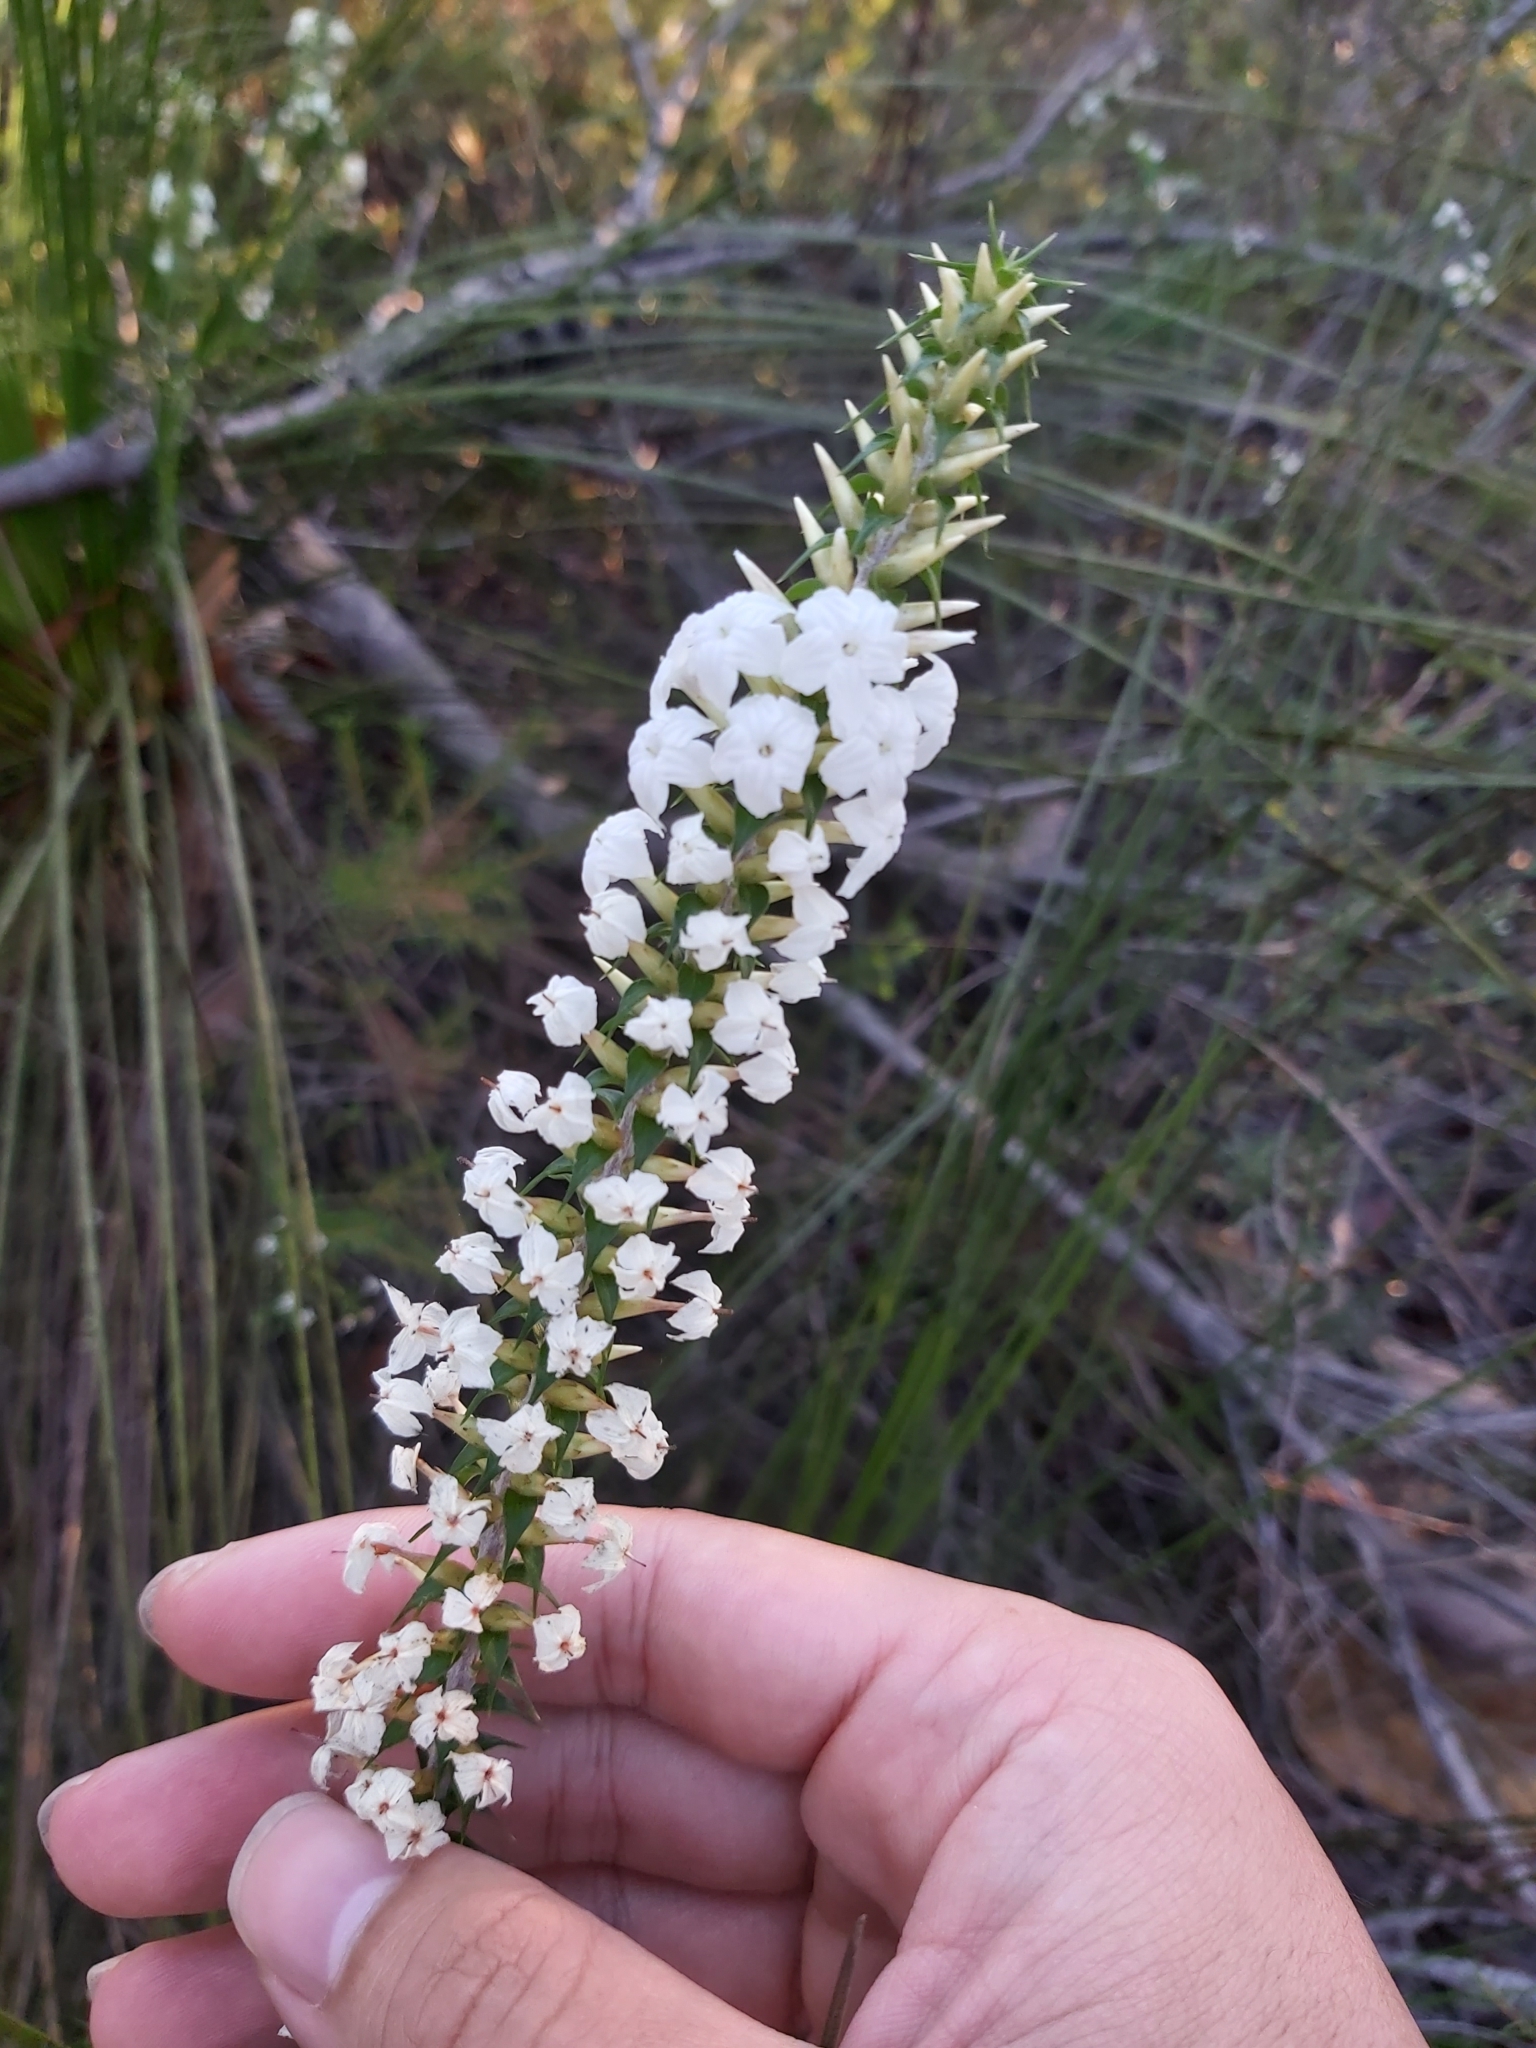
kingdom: Plantae
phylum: Tracheophyta
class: Magnoliopsida
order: Ericales
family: Ericaceae
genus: Woollsia
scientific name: Woollsia pungens
